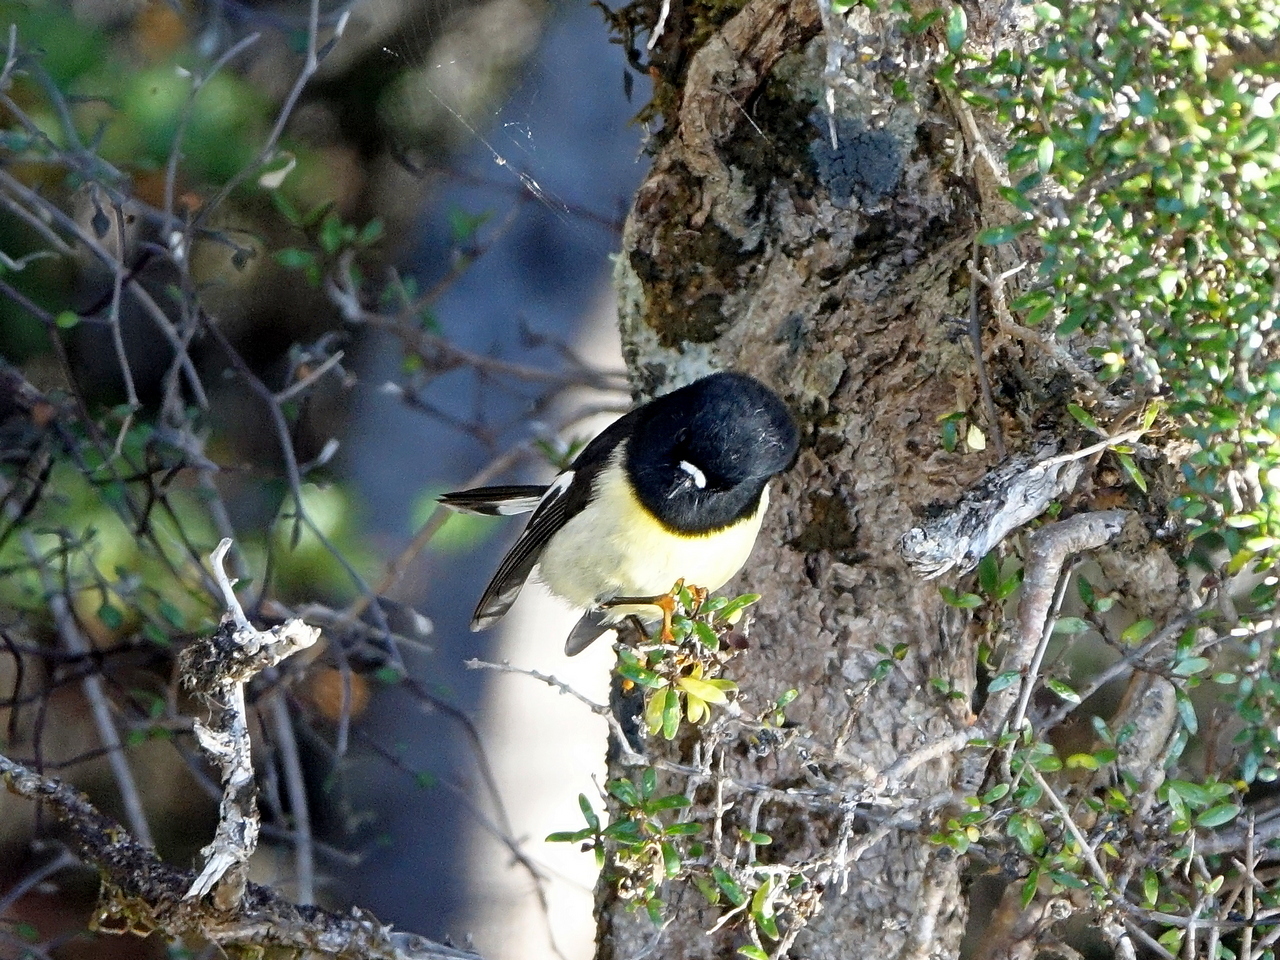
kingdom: Animalia
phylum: Chordata
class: Aves
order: Passeriformes
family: Petroicidae
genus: Petroica
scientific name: Petroica macrocephala
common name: Tomtit
